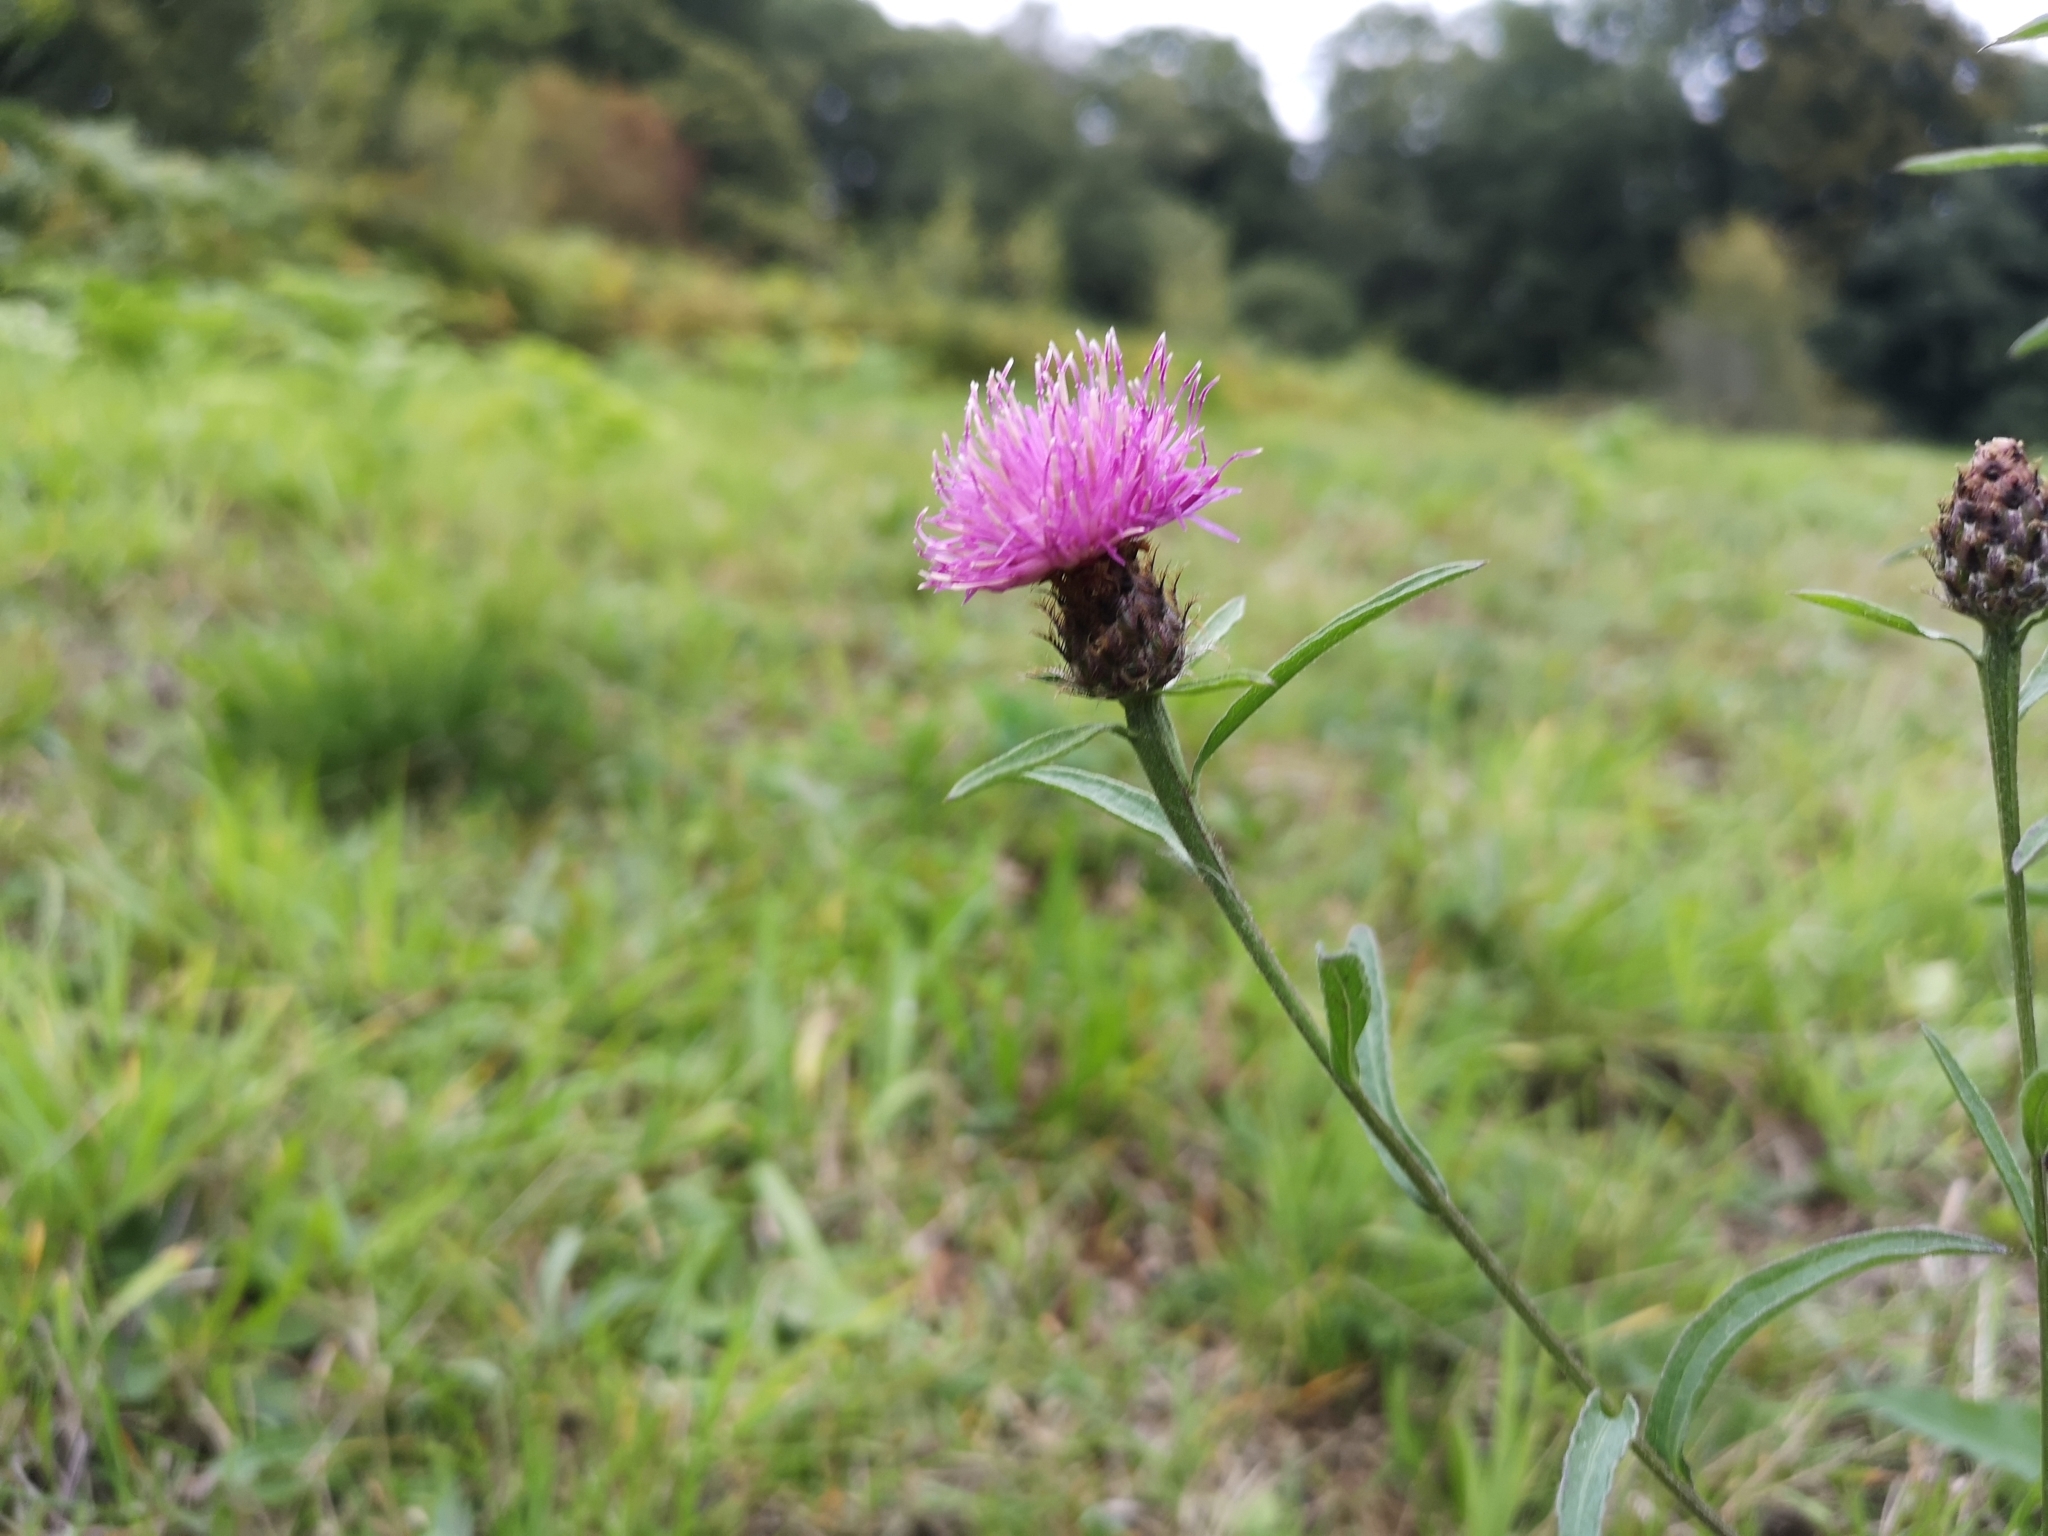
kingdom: Plantae
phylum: Tracheophyta
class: Magnoliopsida
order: Asterales
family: Asteraceae
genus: Centaurea
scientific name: Centaurea nigra
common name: Lesser knapweed
